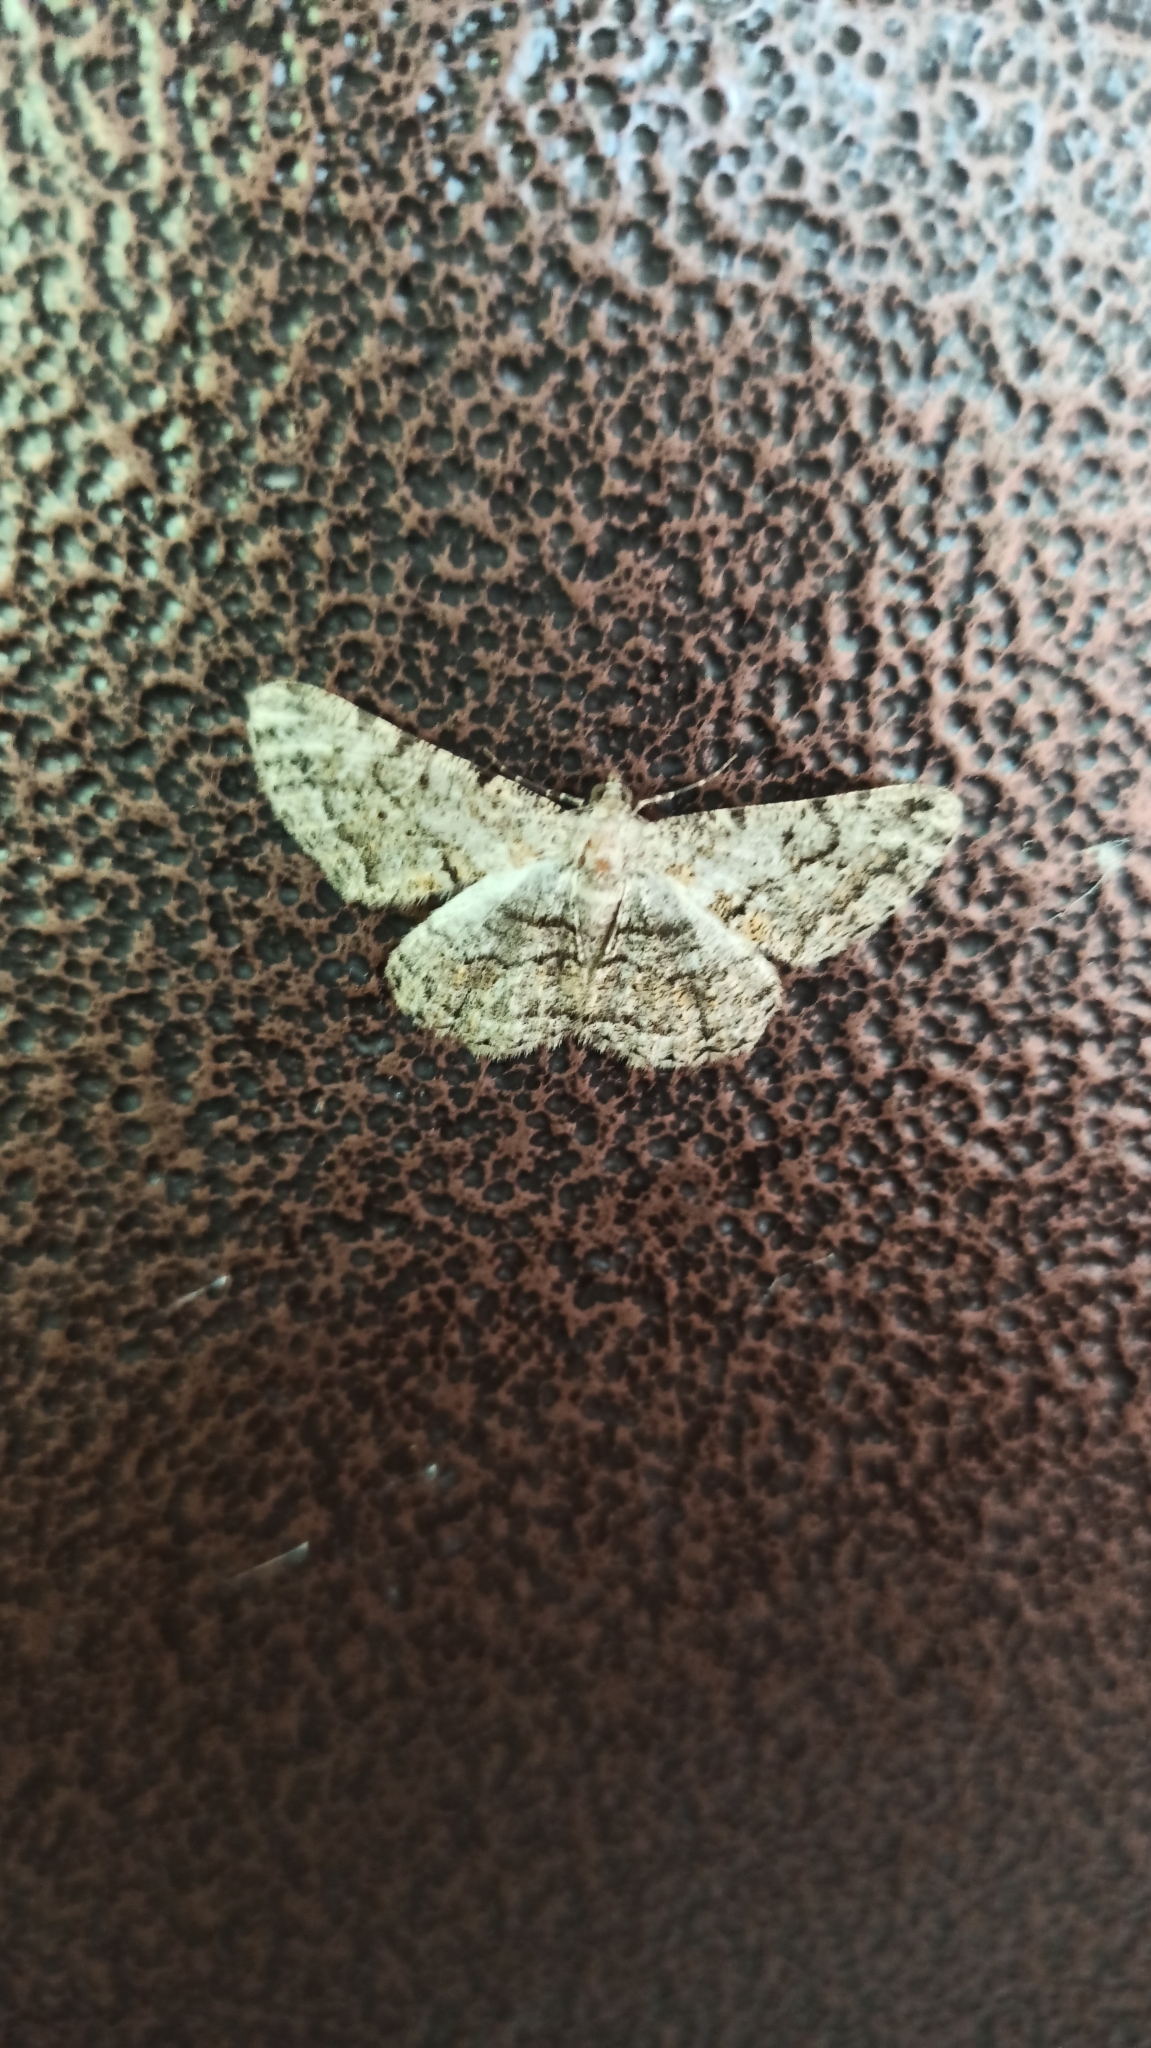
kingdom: Animalia
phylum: Arthropoda
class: Insecta
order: Lepidoptera
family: Geometridae
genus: Peribatodes
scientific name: Peribatodes rhomboidaria
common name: Willow beauty
